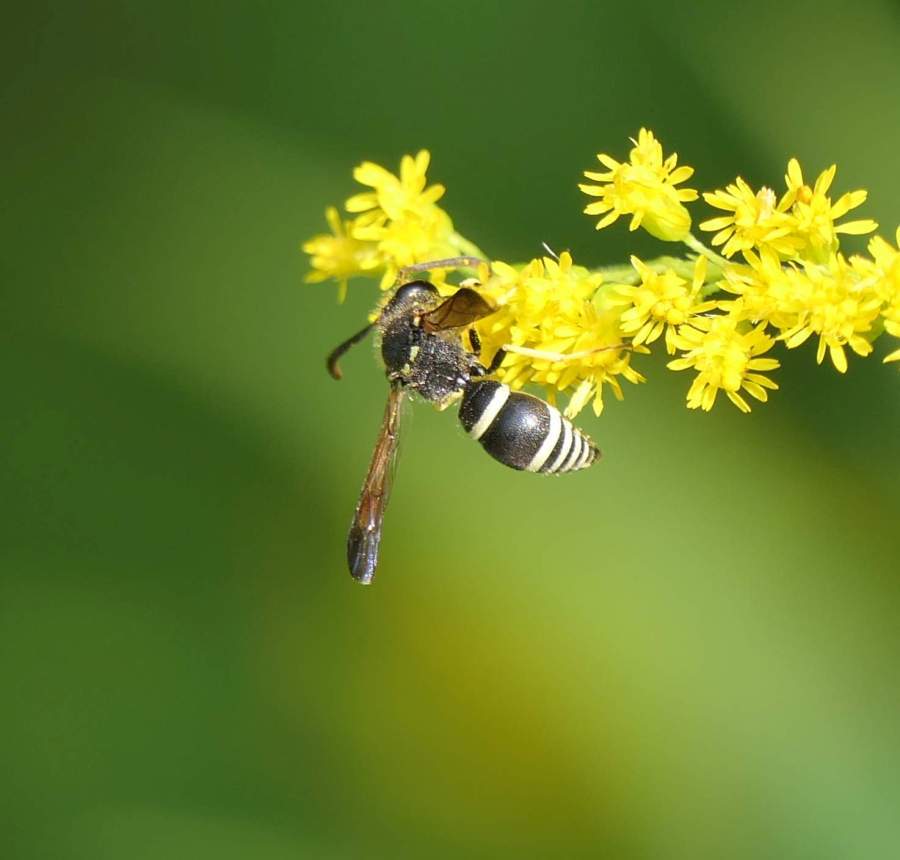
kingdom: Animalia
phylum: Arthropoda
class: Insecta
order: Hymenoptera
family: Vespidae
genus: Ancistrocerus
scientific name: Ancistrocerus
